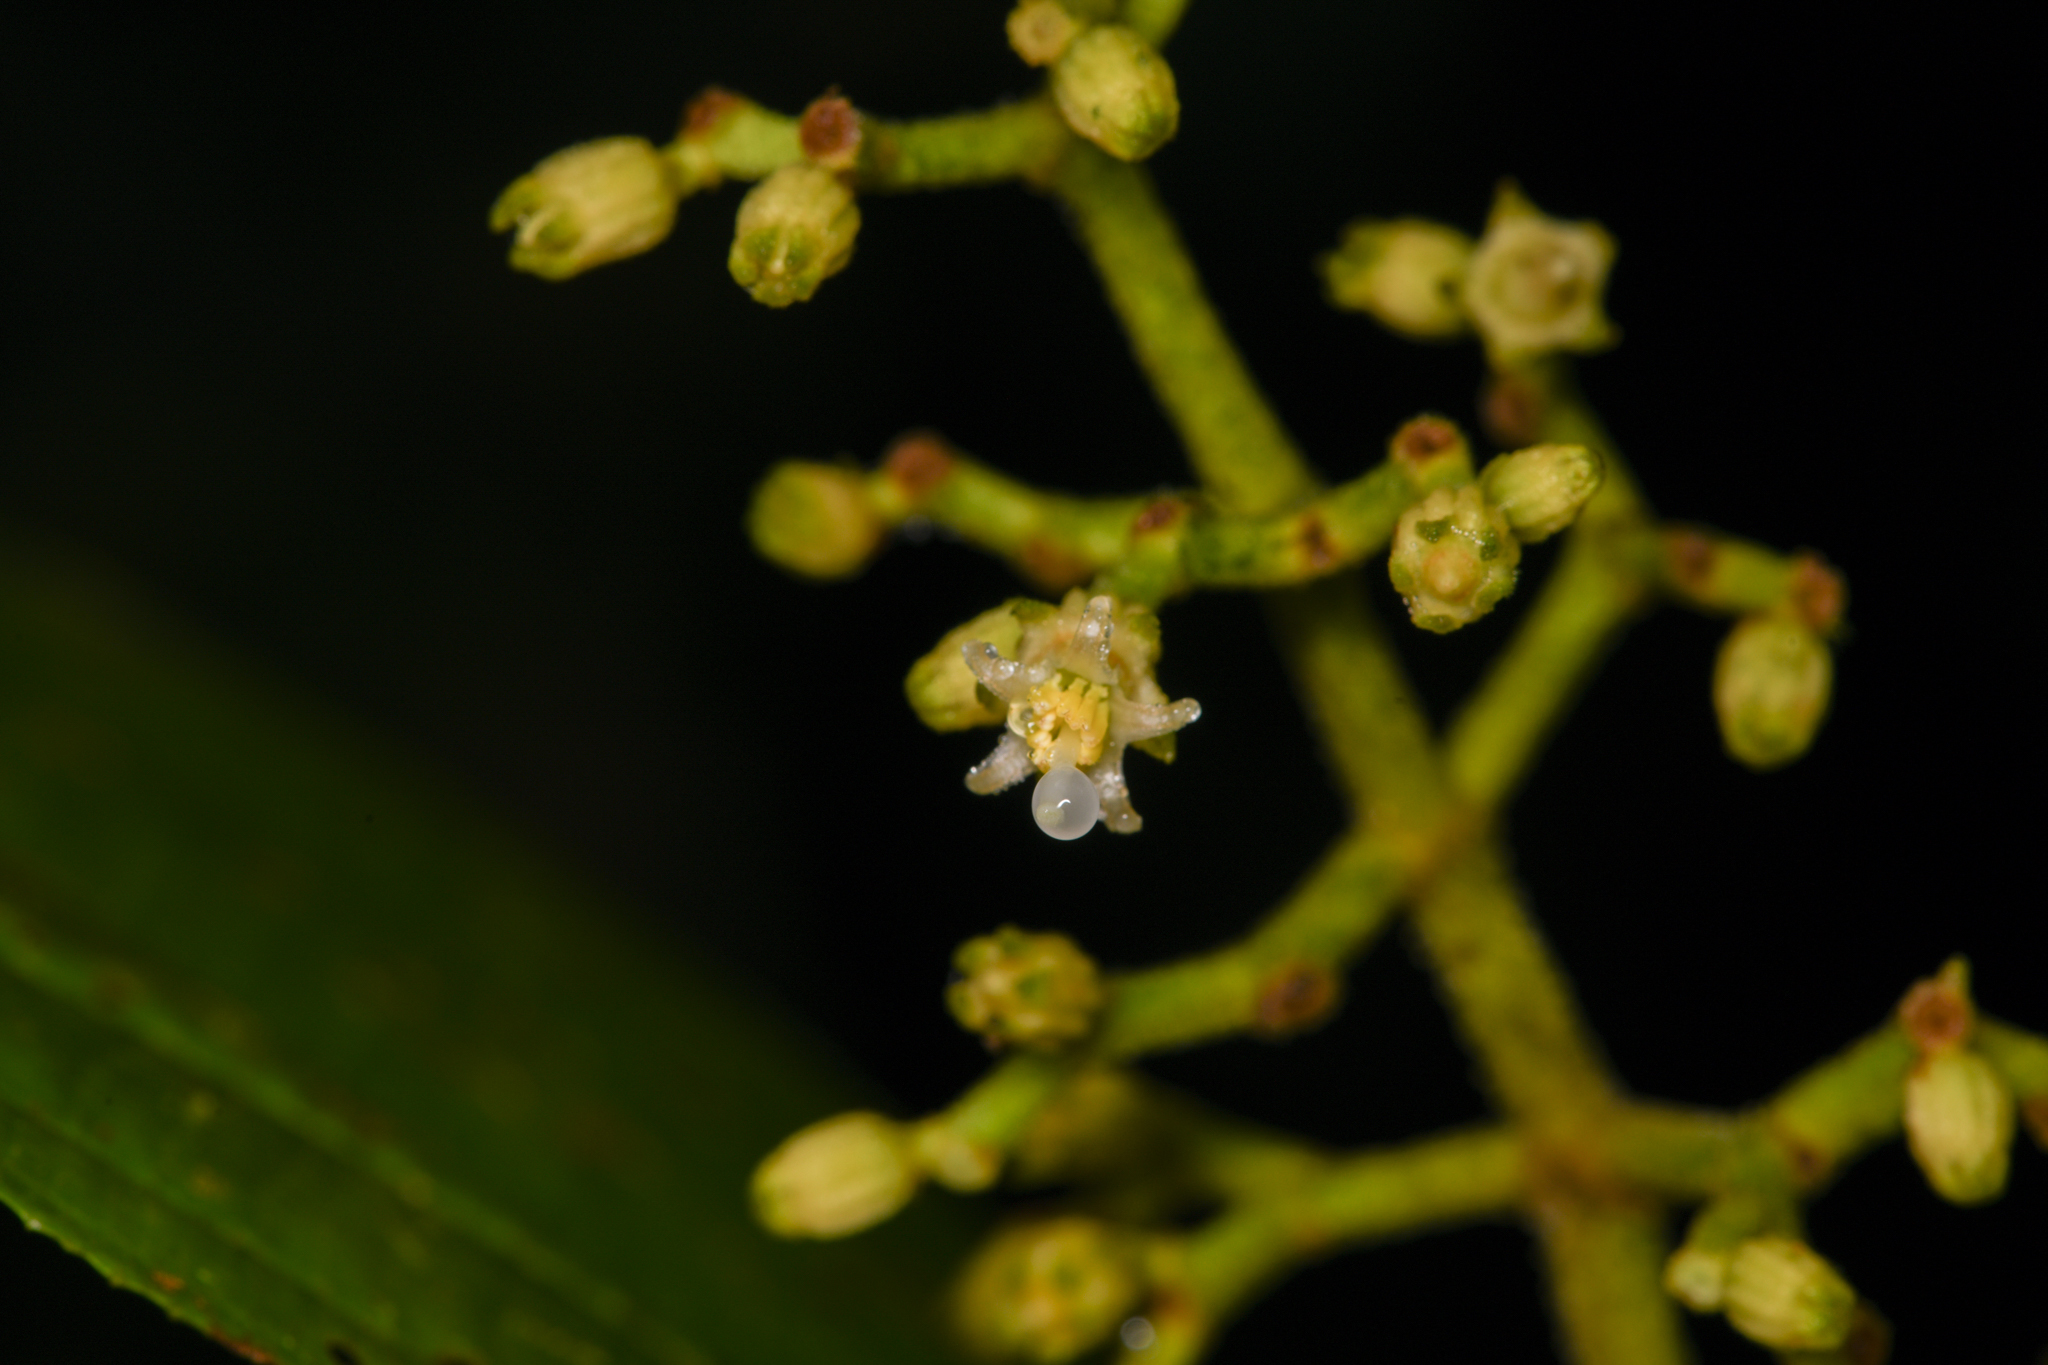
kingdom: Plantae
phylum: Tracheophyta
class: Magnoliopsida
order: Myrtales
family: Melastomataceae
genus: Miconia
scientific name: Miconia albertobrenesii
